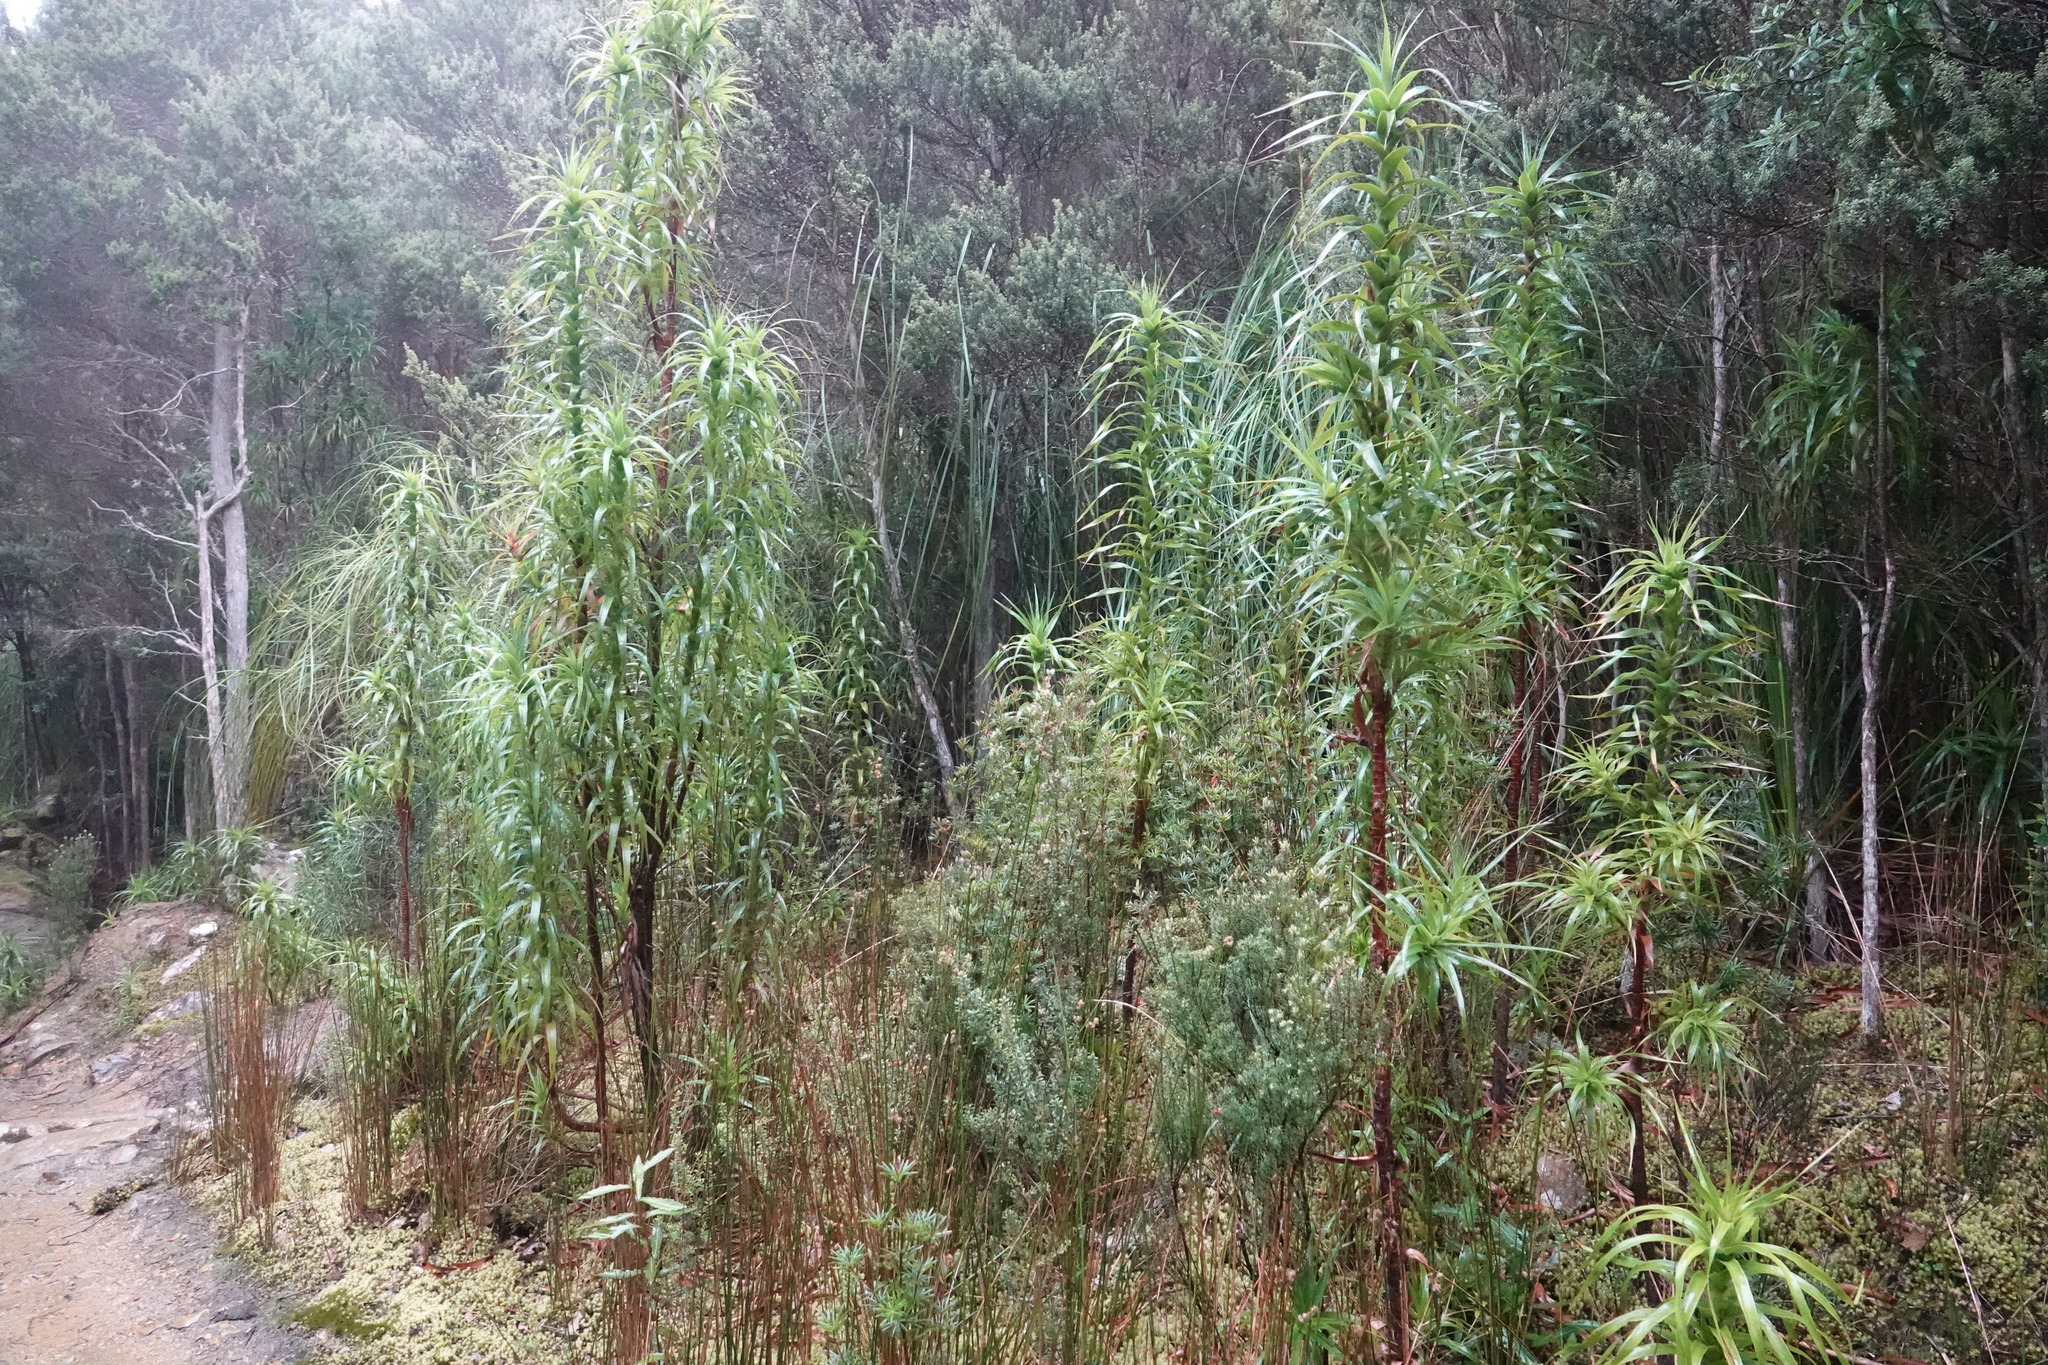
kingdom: Plantae
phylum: Tracheophyta
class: Magnoliopsida
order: Ericales
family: Ericaceae
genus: Dracophyllum
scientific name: Dracophyllum desgrazii
